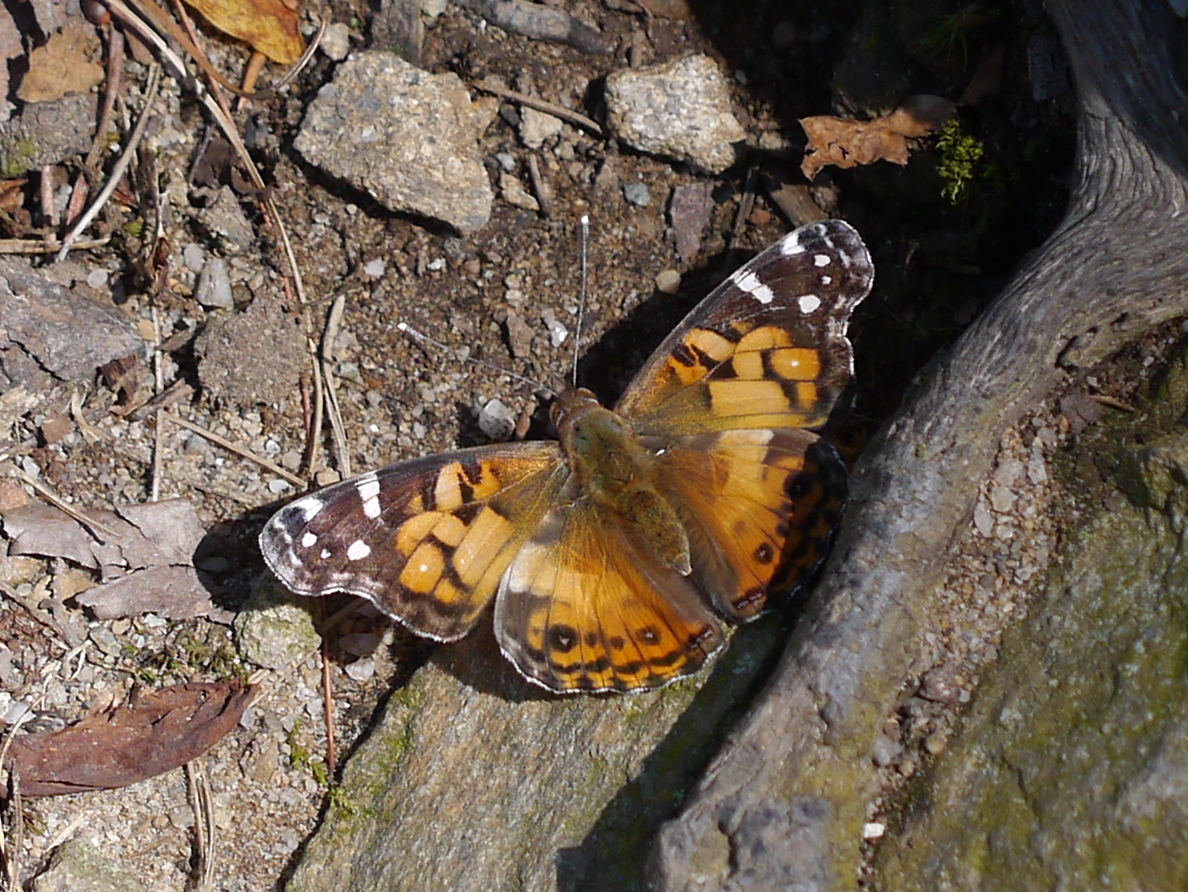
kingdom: Animalia
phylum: Arthropoda
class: Insecta
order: Lepidoptera
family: Nymphalidae
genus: Vanessa
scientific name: Vanessa virginiensis
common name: American lady
